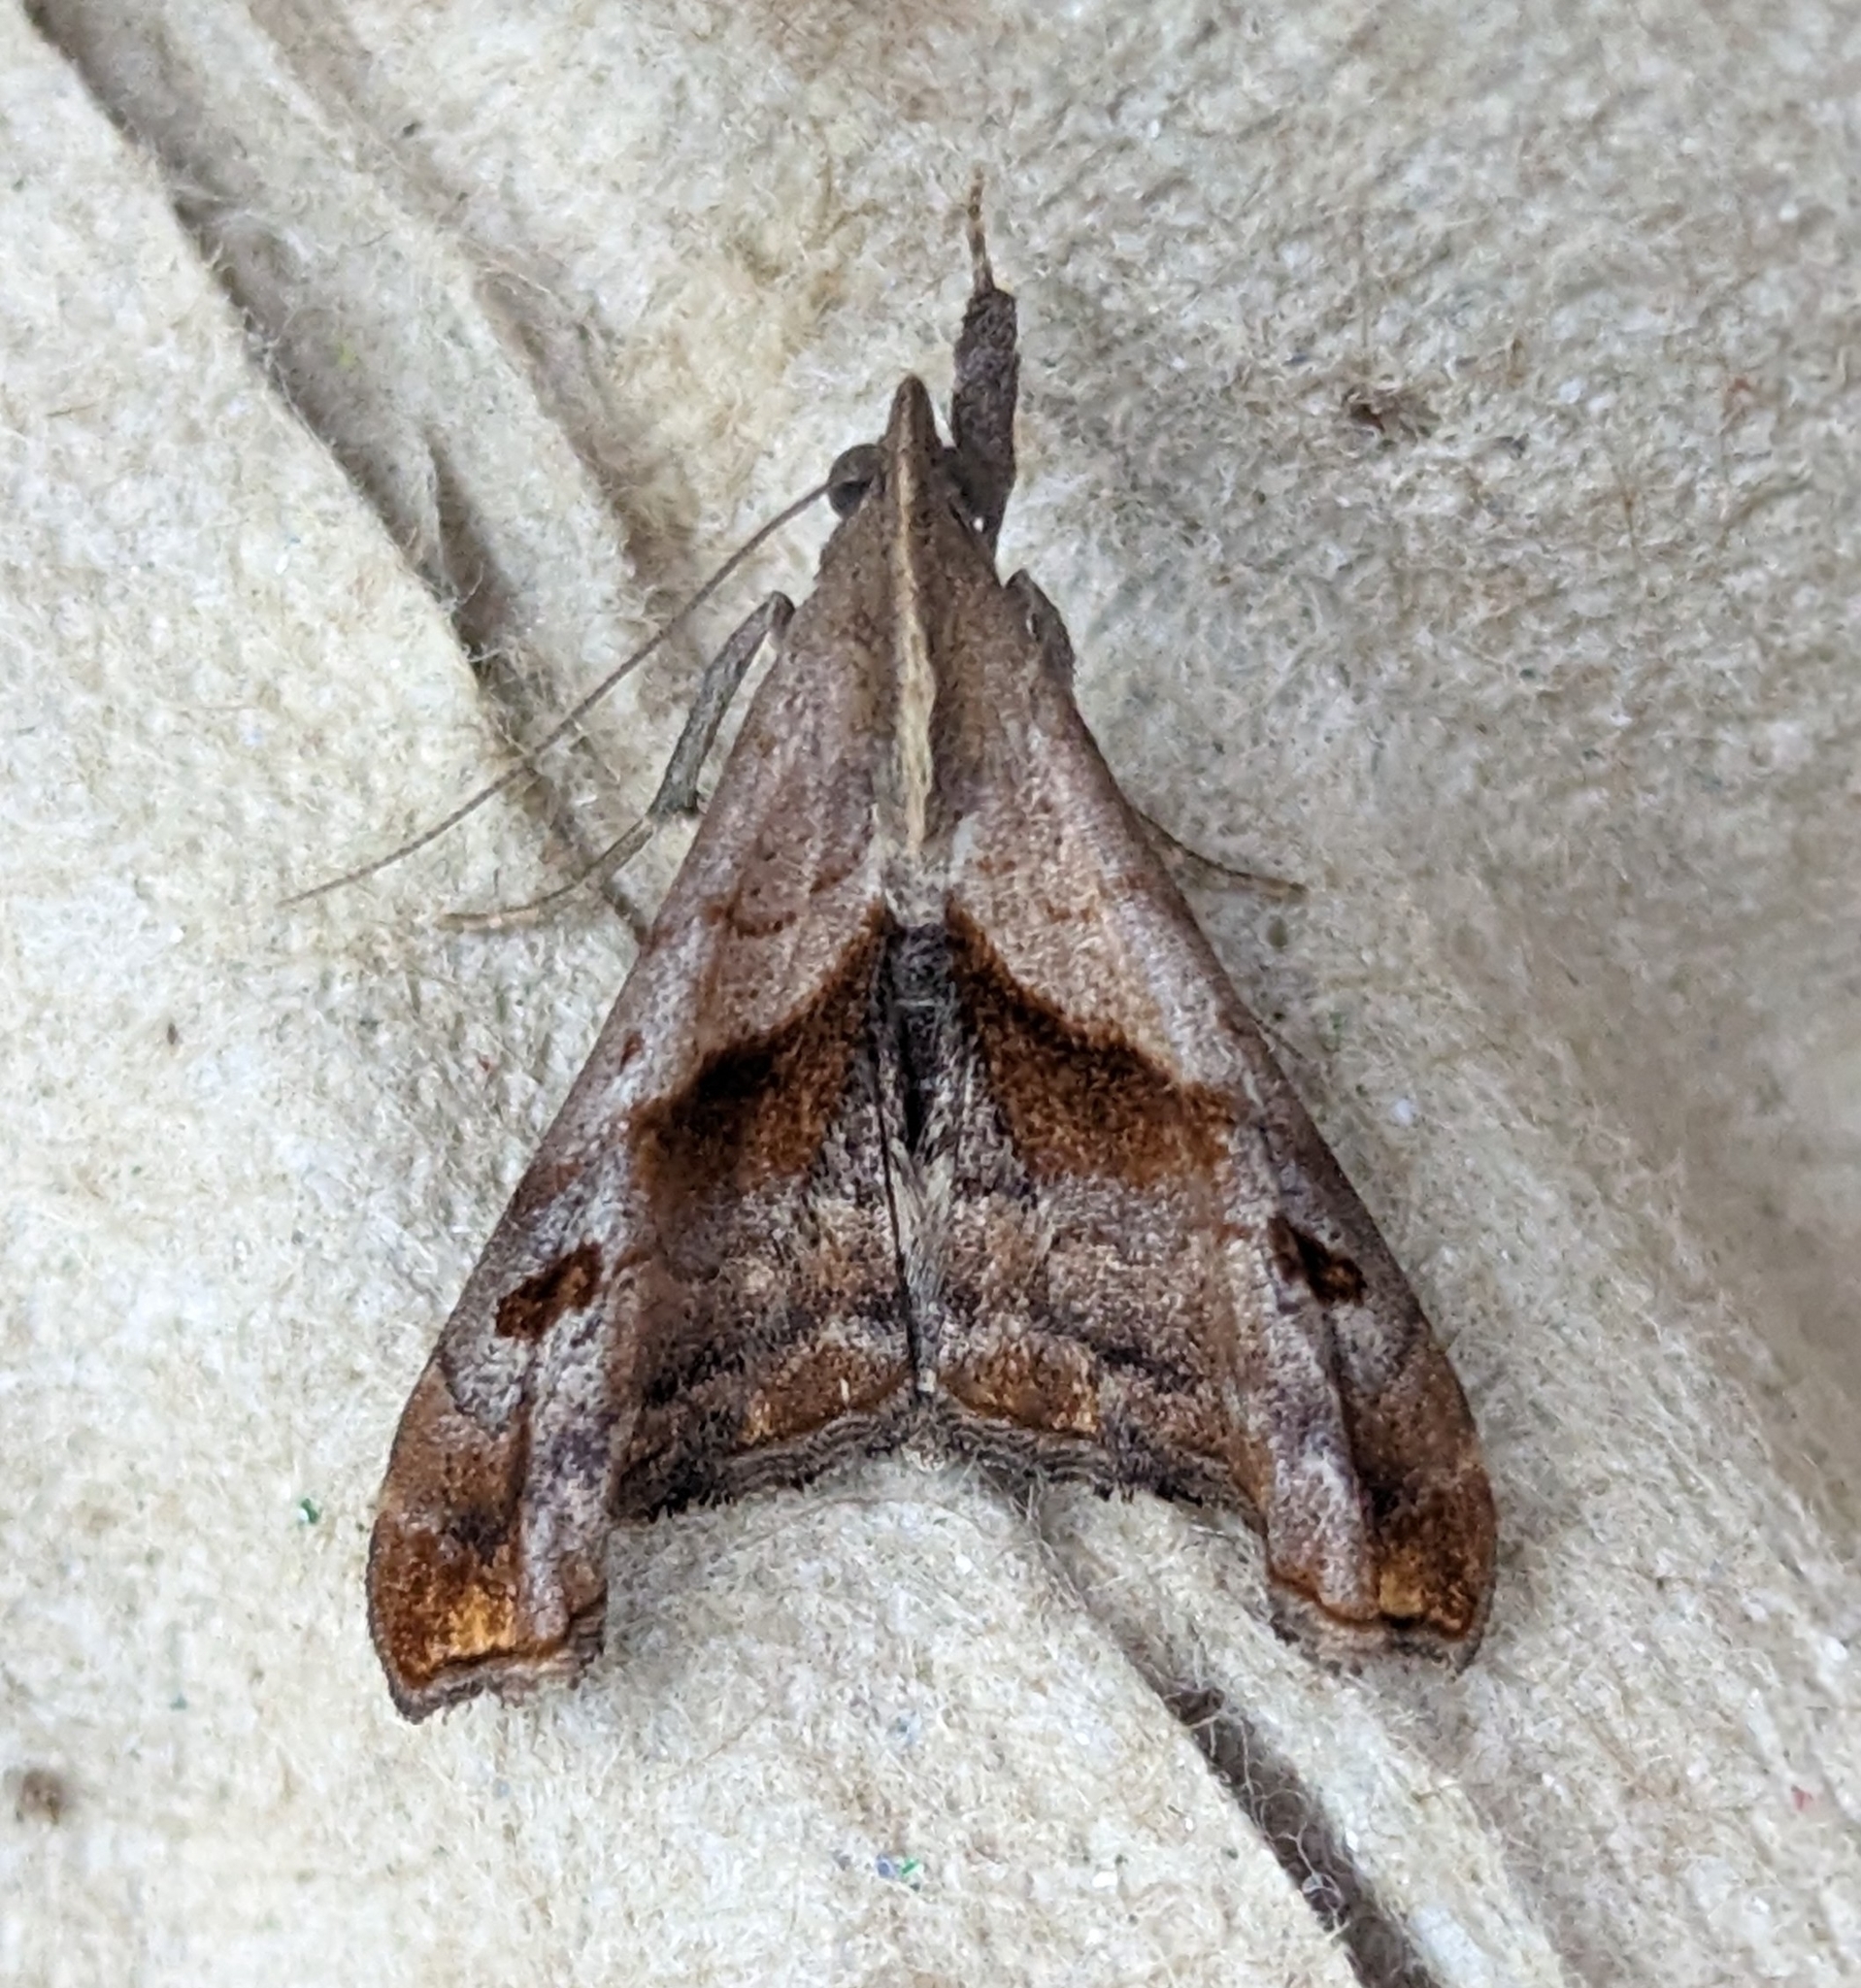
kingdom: Animalia
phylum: Arthropoda
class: Insecta
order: Lepidoptera
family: Erebidae
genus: Palthis
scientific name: Palthis angulalis
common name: Dark-spotted palthis moth
